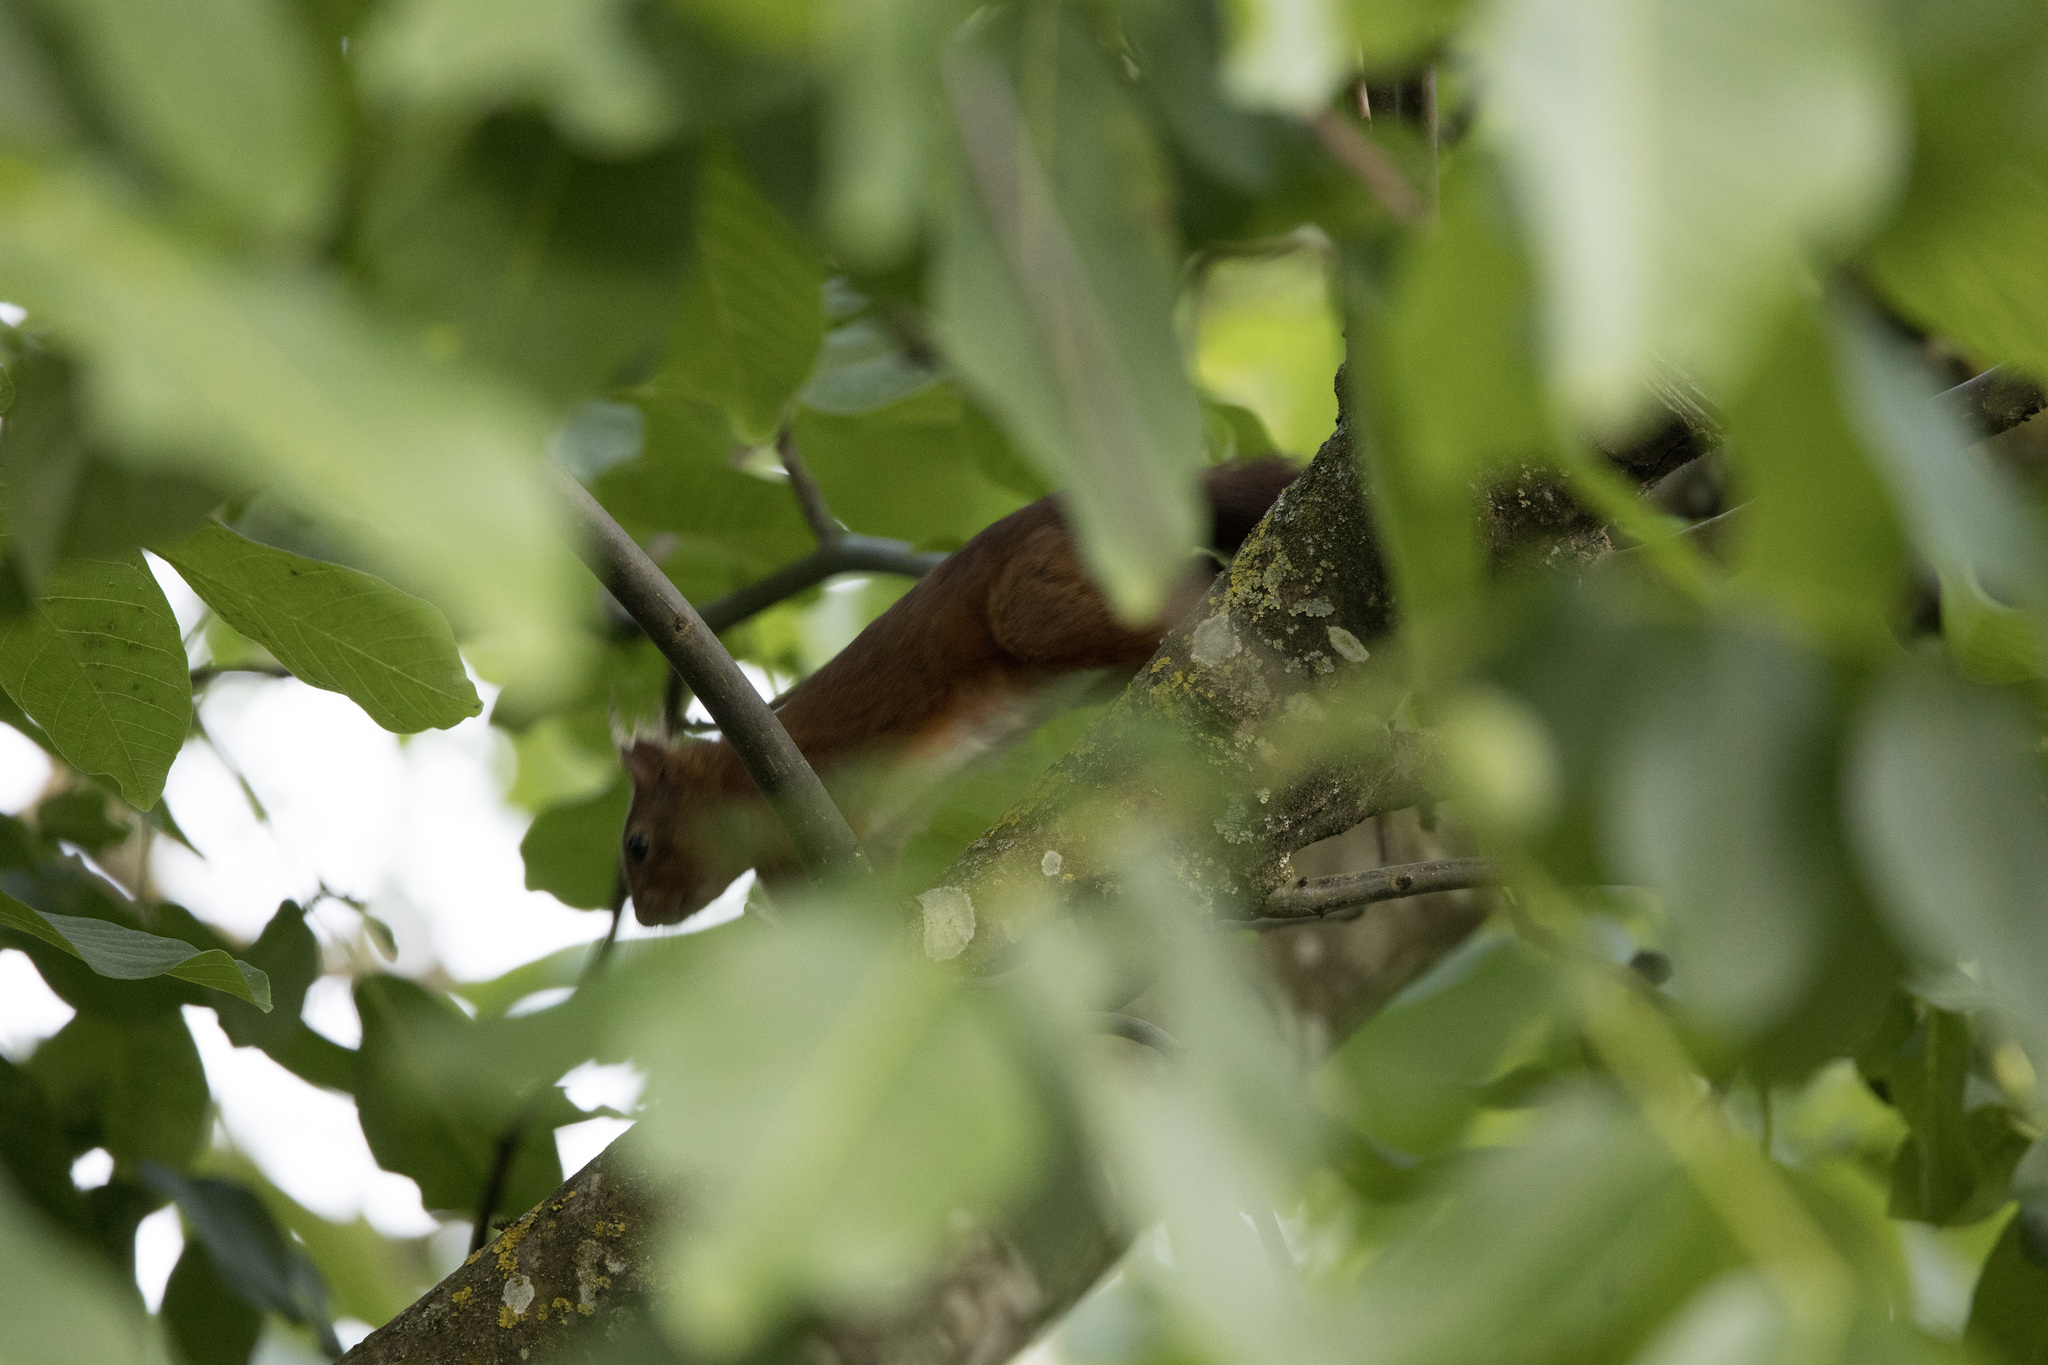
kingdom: Animalia
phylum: Chordata
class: Mammalia
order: Rodentia
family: Sciuridae
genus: Sciurus
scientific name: Sciurus vulgaris
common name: Eurasian red squirrel
